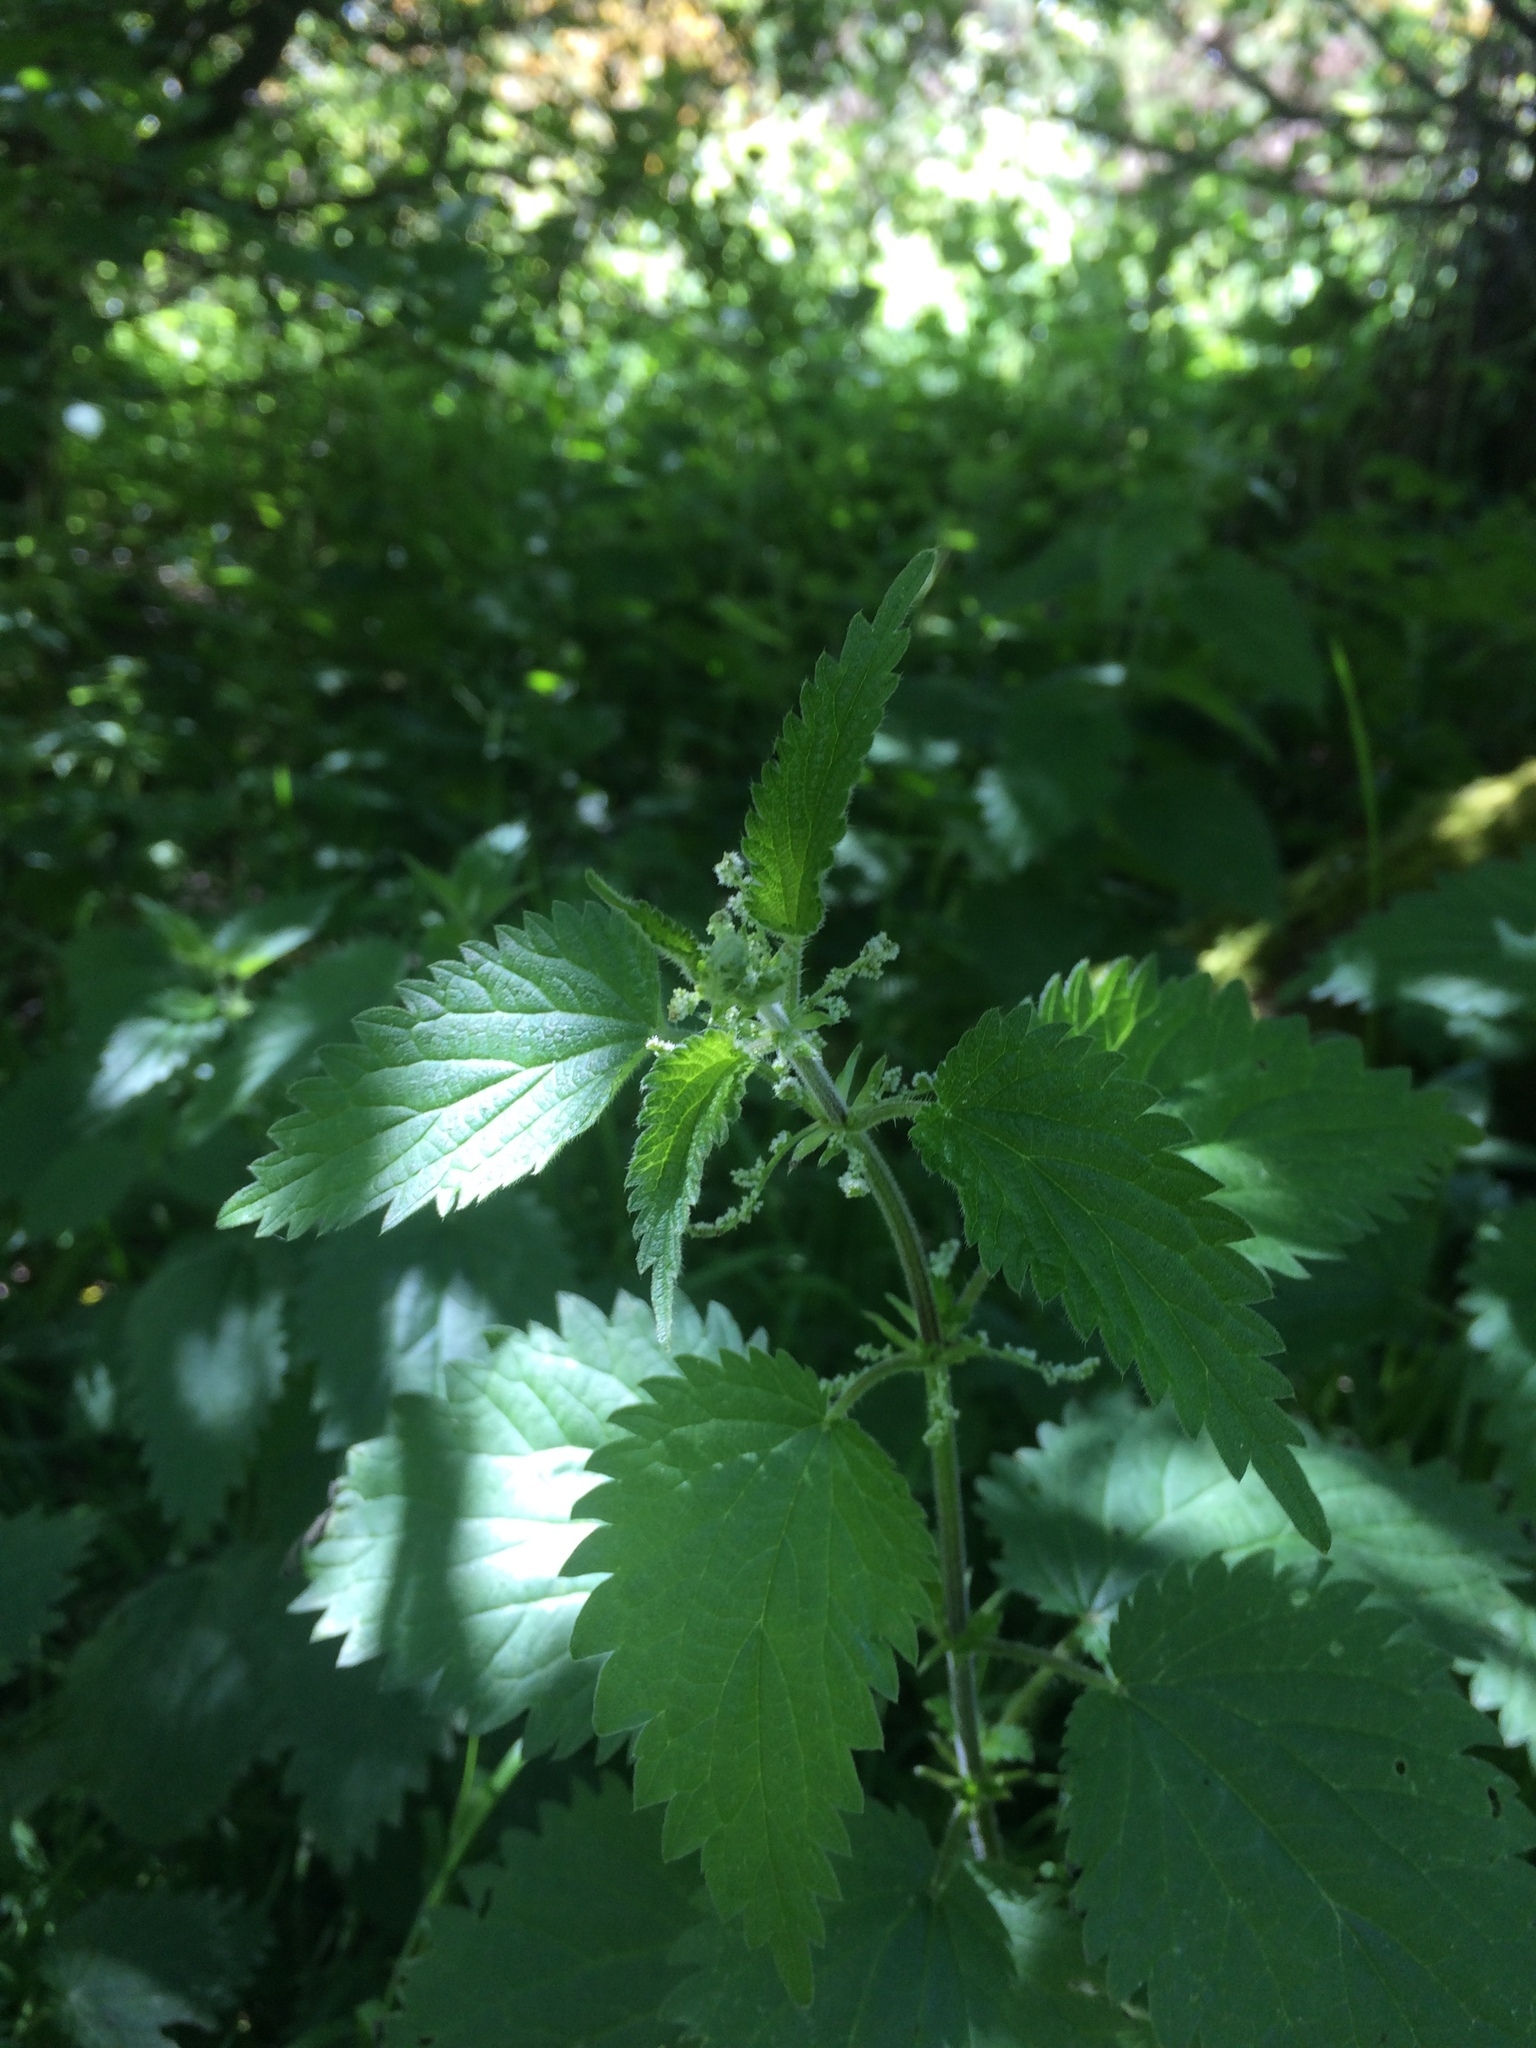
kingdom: Plantae
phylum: Tracheophyta
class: Magnoliopsida
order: Rosales
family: Urticaceae
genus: Urtica
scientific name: Urtica dioica
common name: Common nettle
